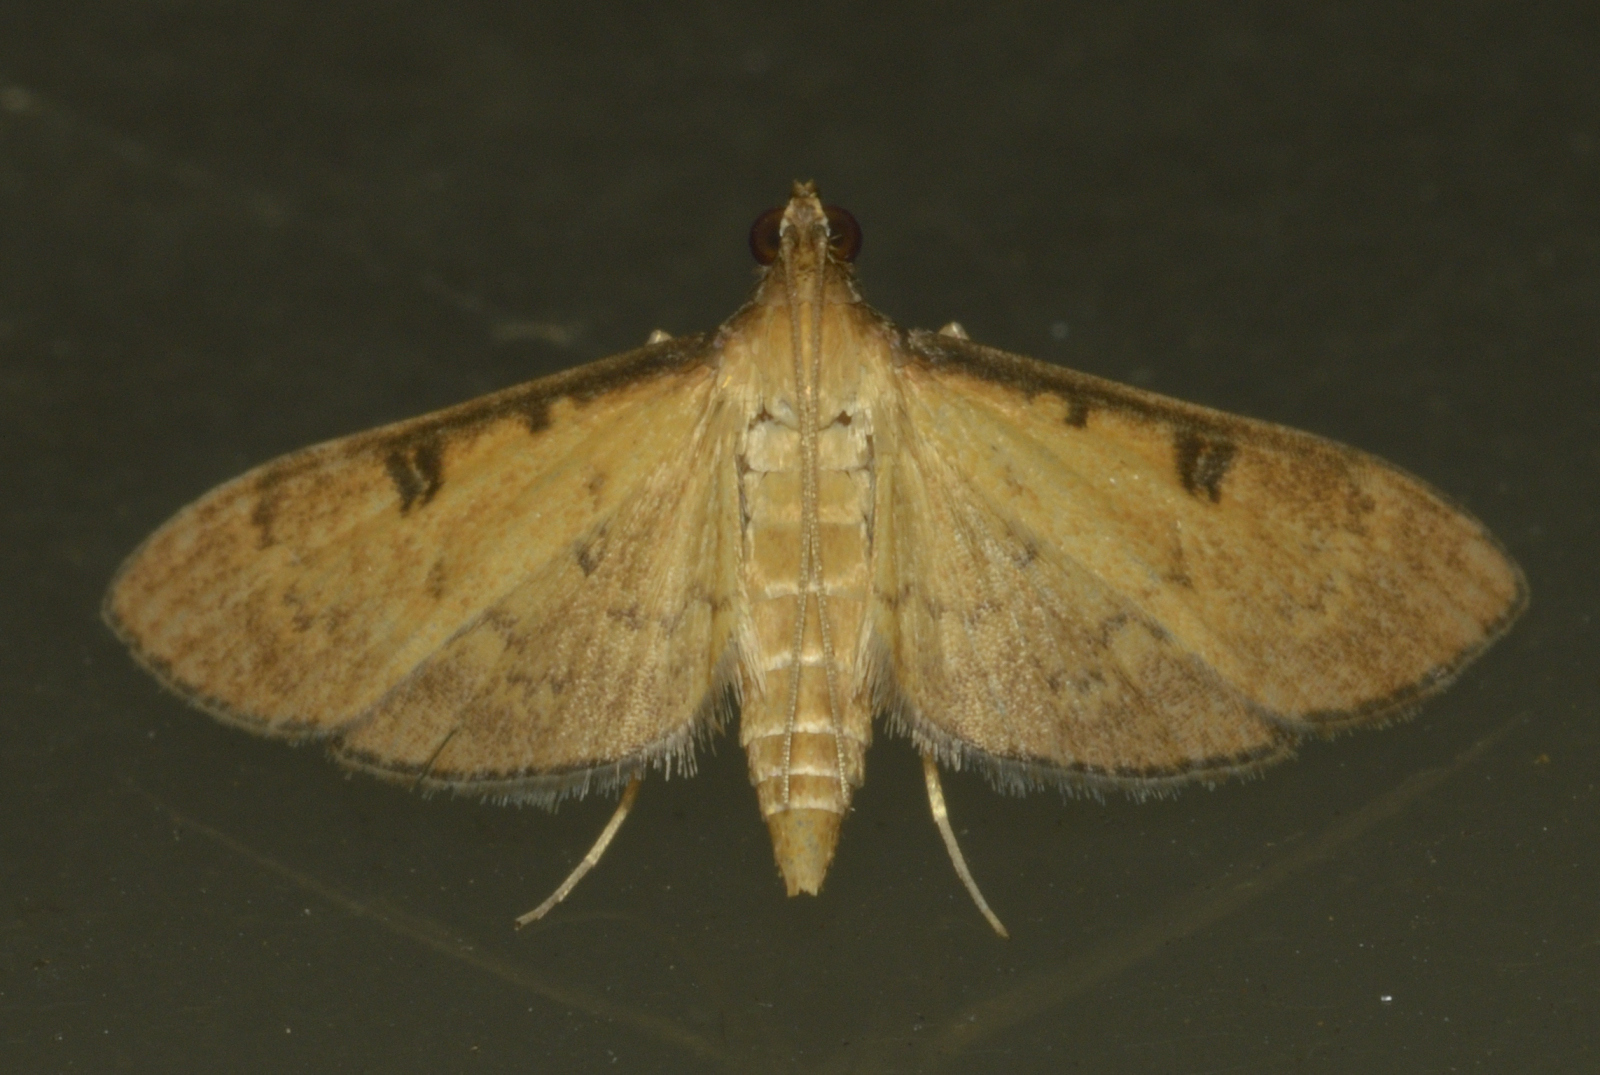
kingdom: Animalia
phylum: Arthropoda
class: Insecta
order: Lepidoptera
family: Crambidae
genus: Tatobotys
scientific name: Tatobotys biannulalis
